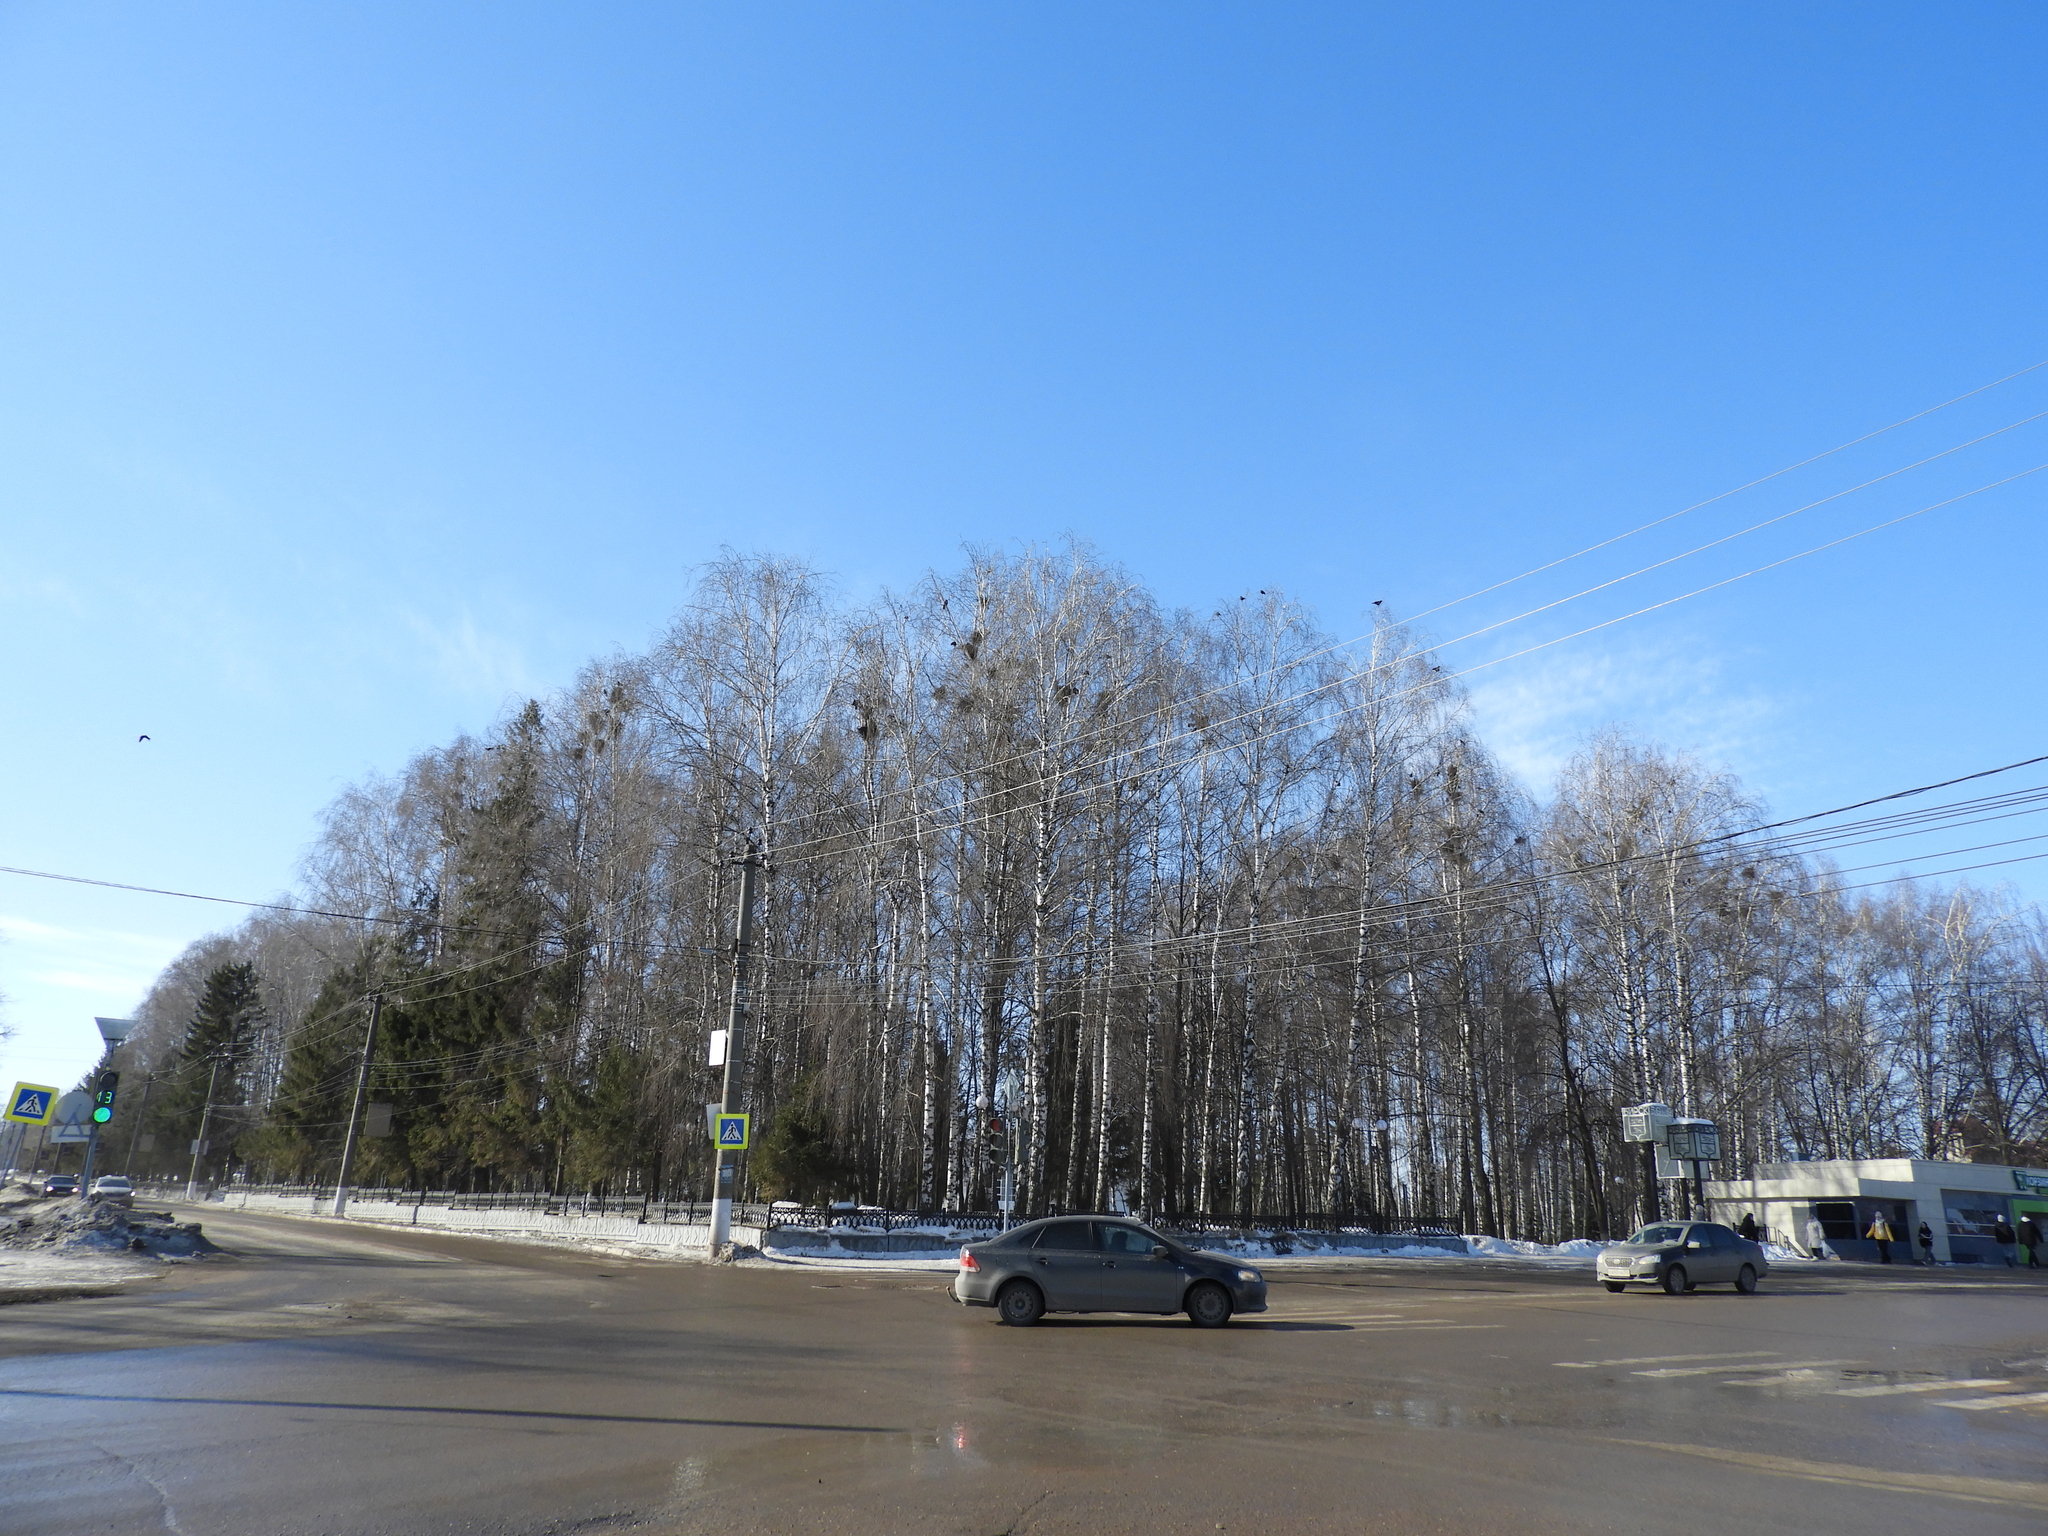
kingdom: Animalia
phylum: Chordata
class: Aves
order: Passeriformes
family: Corvidae
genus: Corvus
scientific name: Corvus frugilegus
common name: Rook
